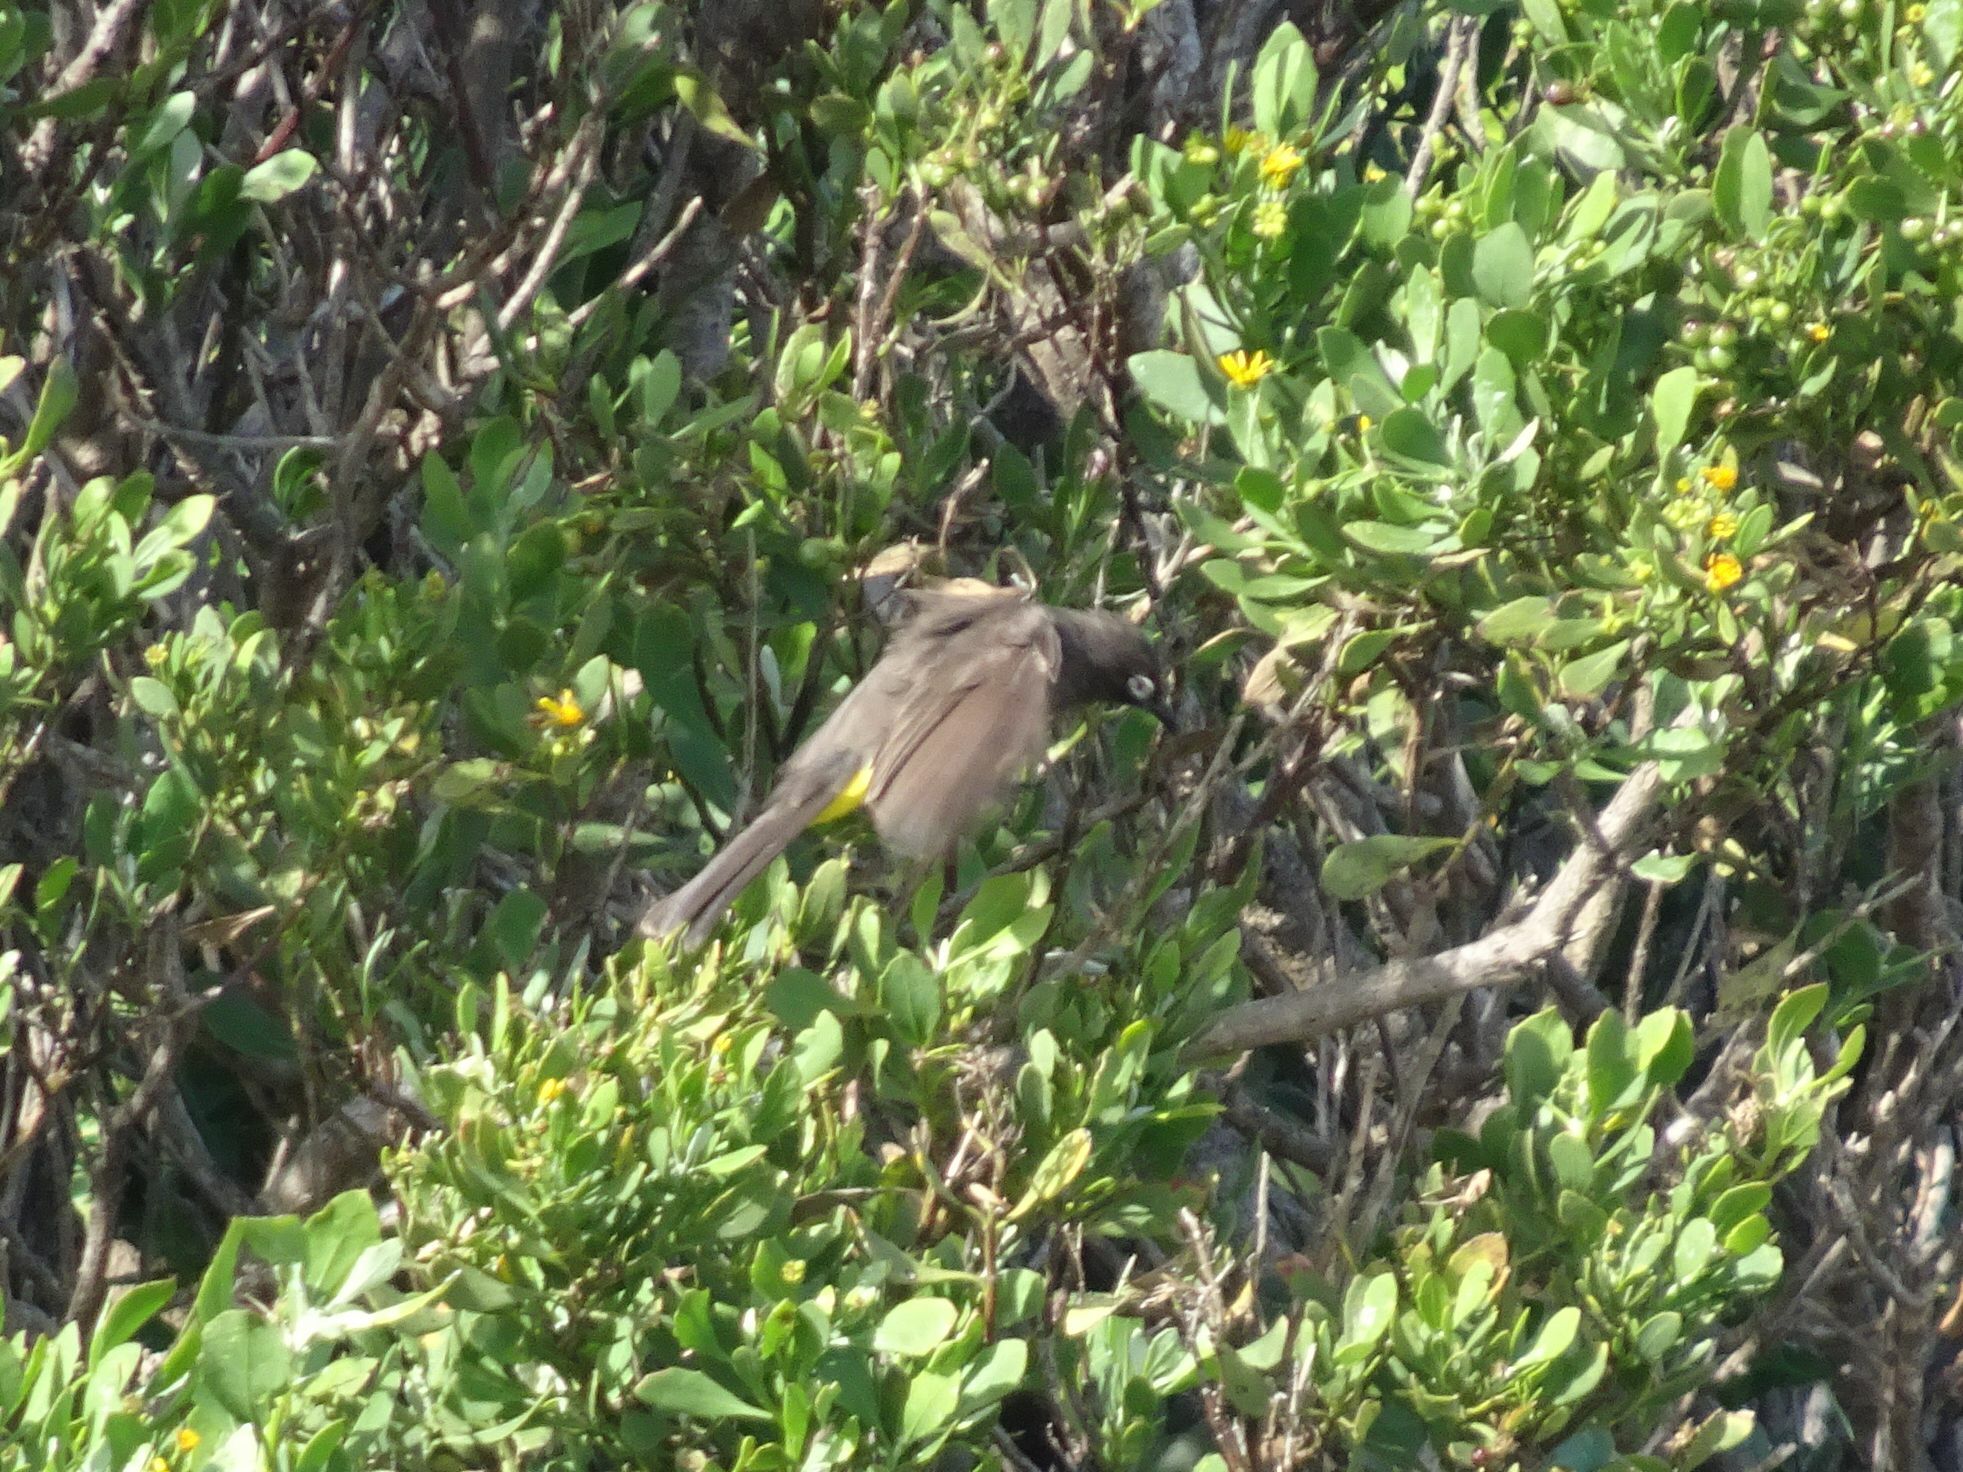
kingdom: Animalia
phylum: Chordata
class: Aves
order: Passeriformes
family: Pycnonotidae
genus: Pycnonotus
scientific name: Pycnonotus capensis
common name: Cape bulbul
